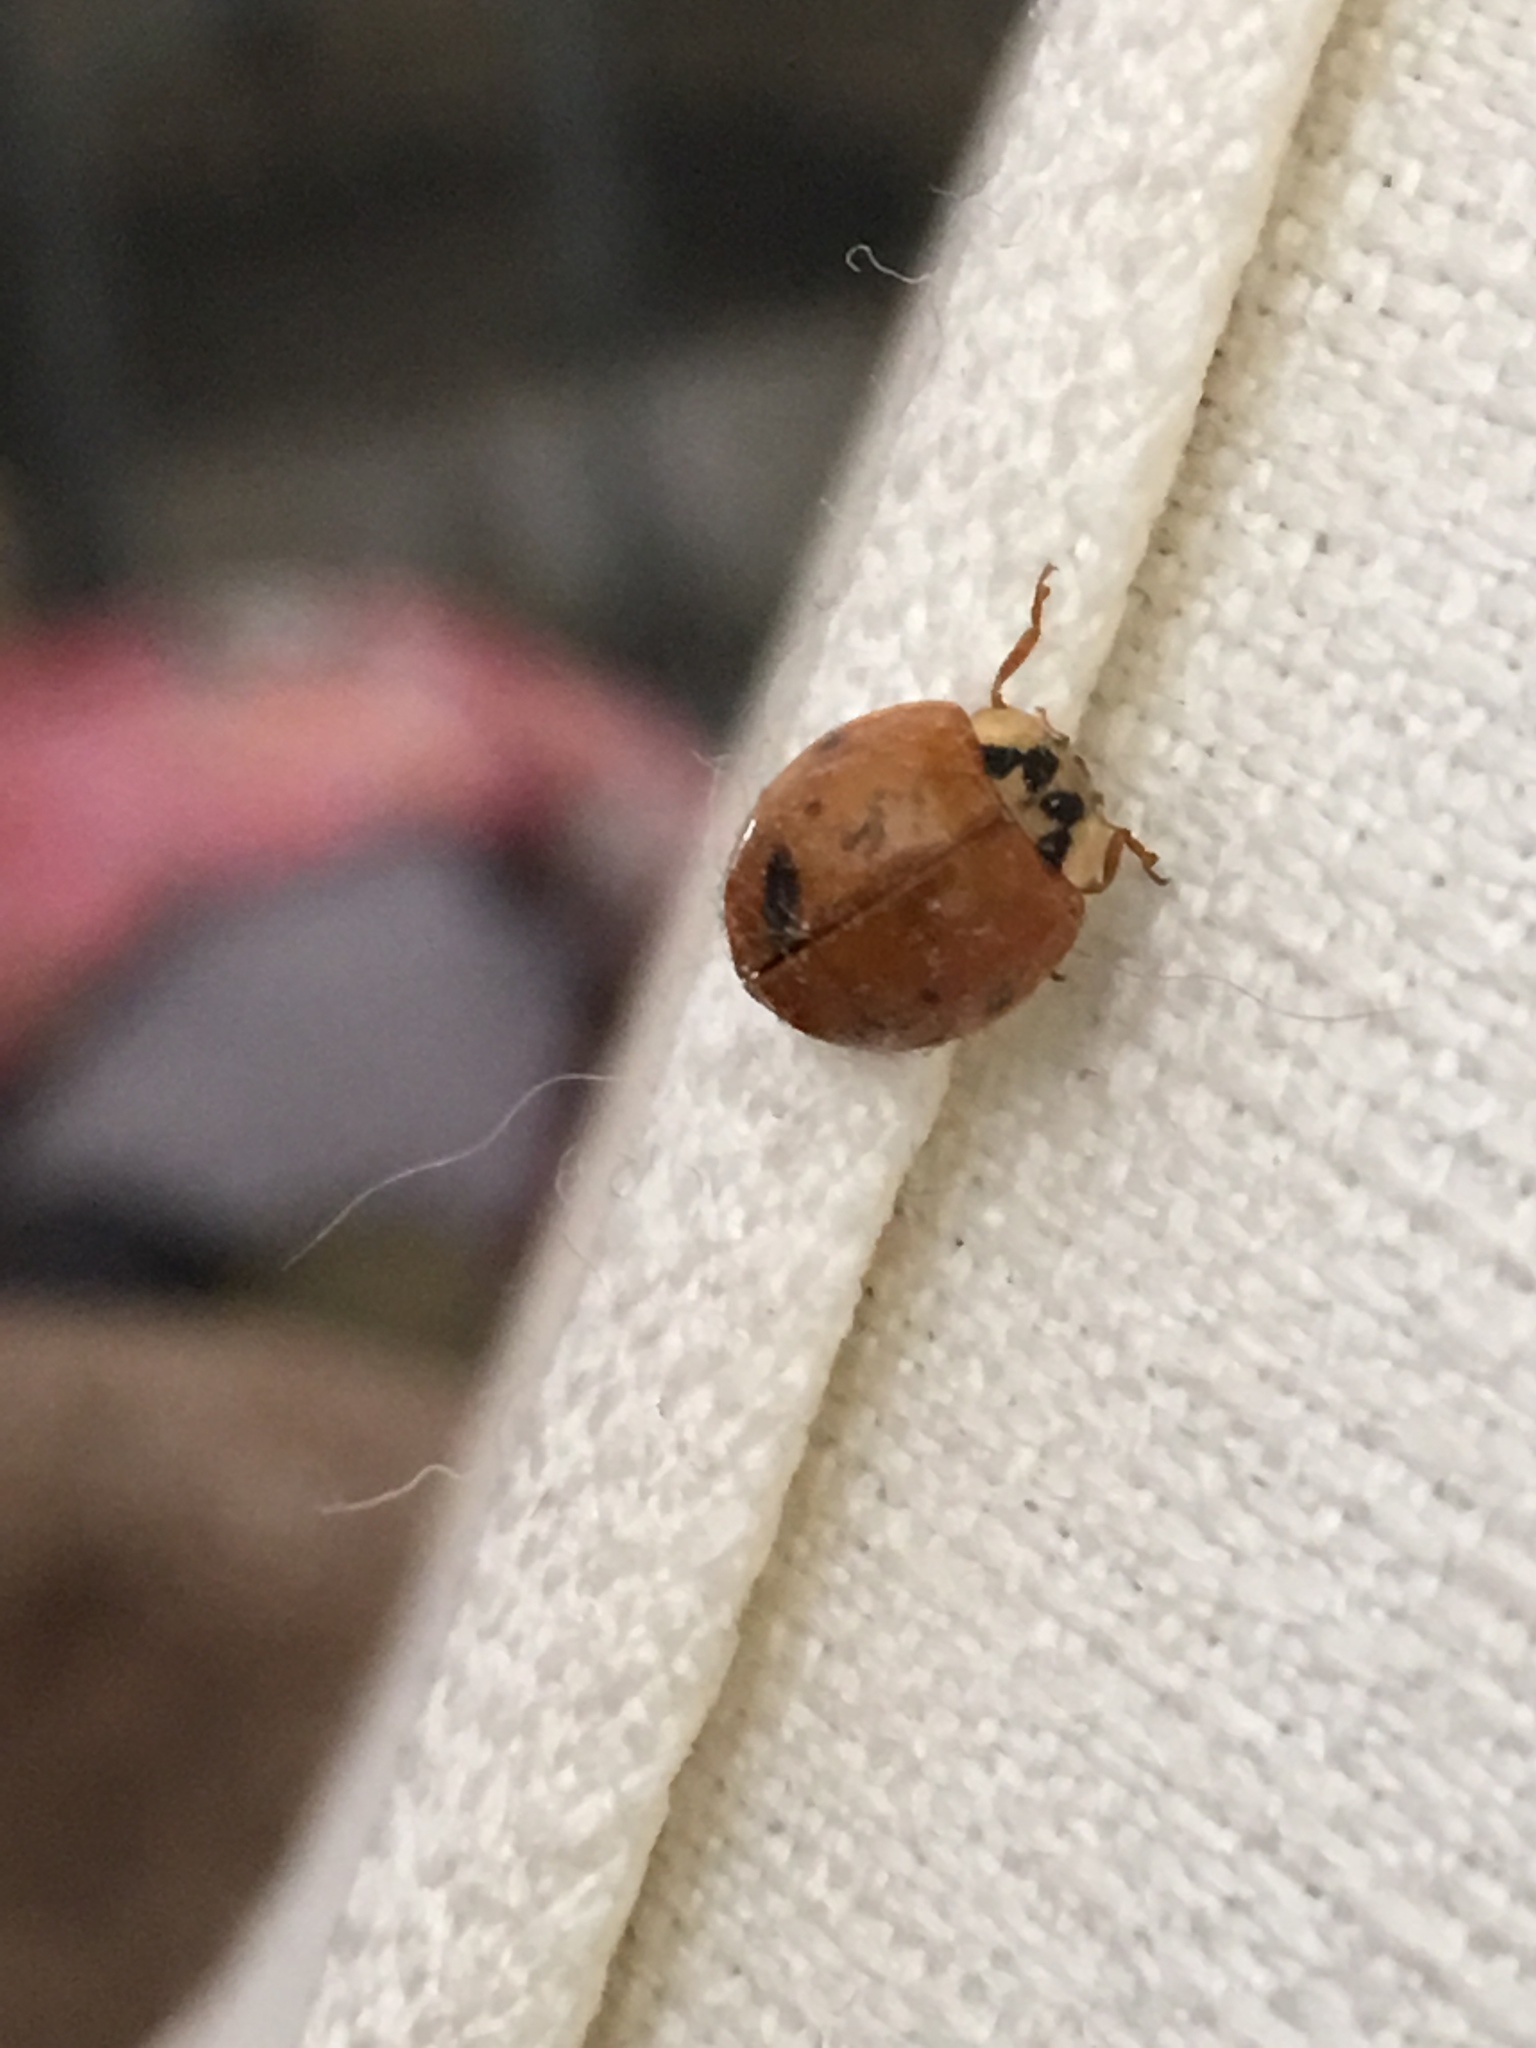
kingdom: Animalia
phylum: Arthropoda
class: Insecta
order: Coleoptera
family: Coccinellidae
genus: Harmonia
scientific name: Harmonia axyridis
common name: Harlequin ladybird
